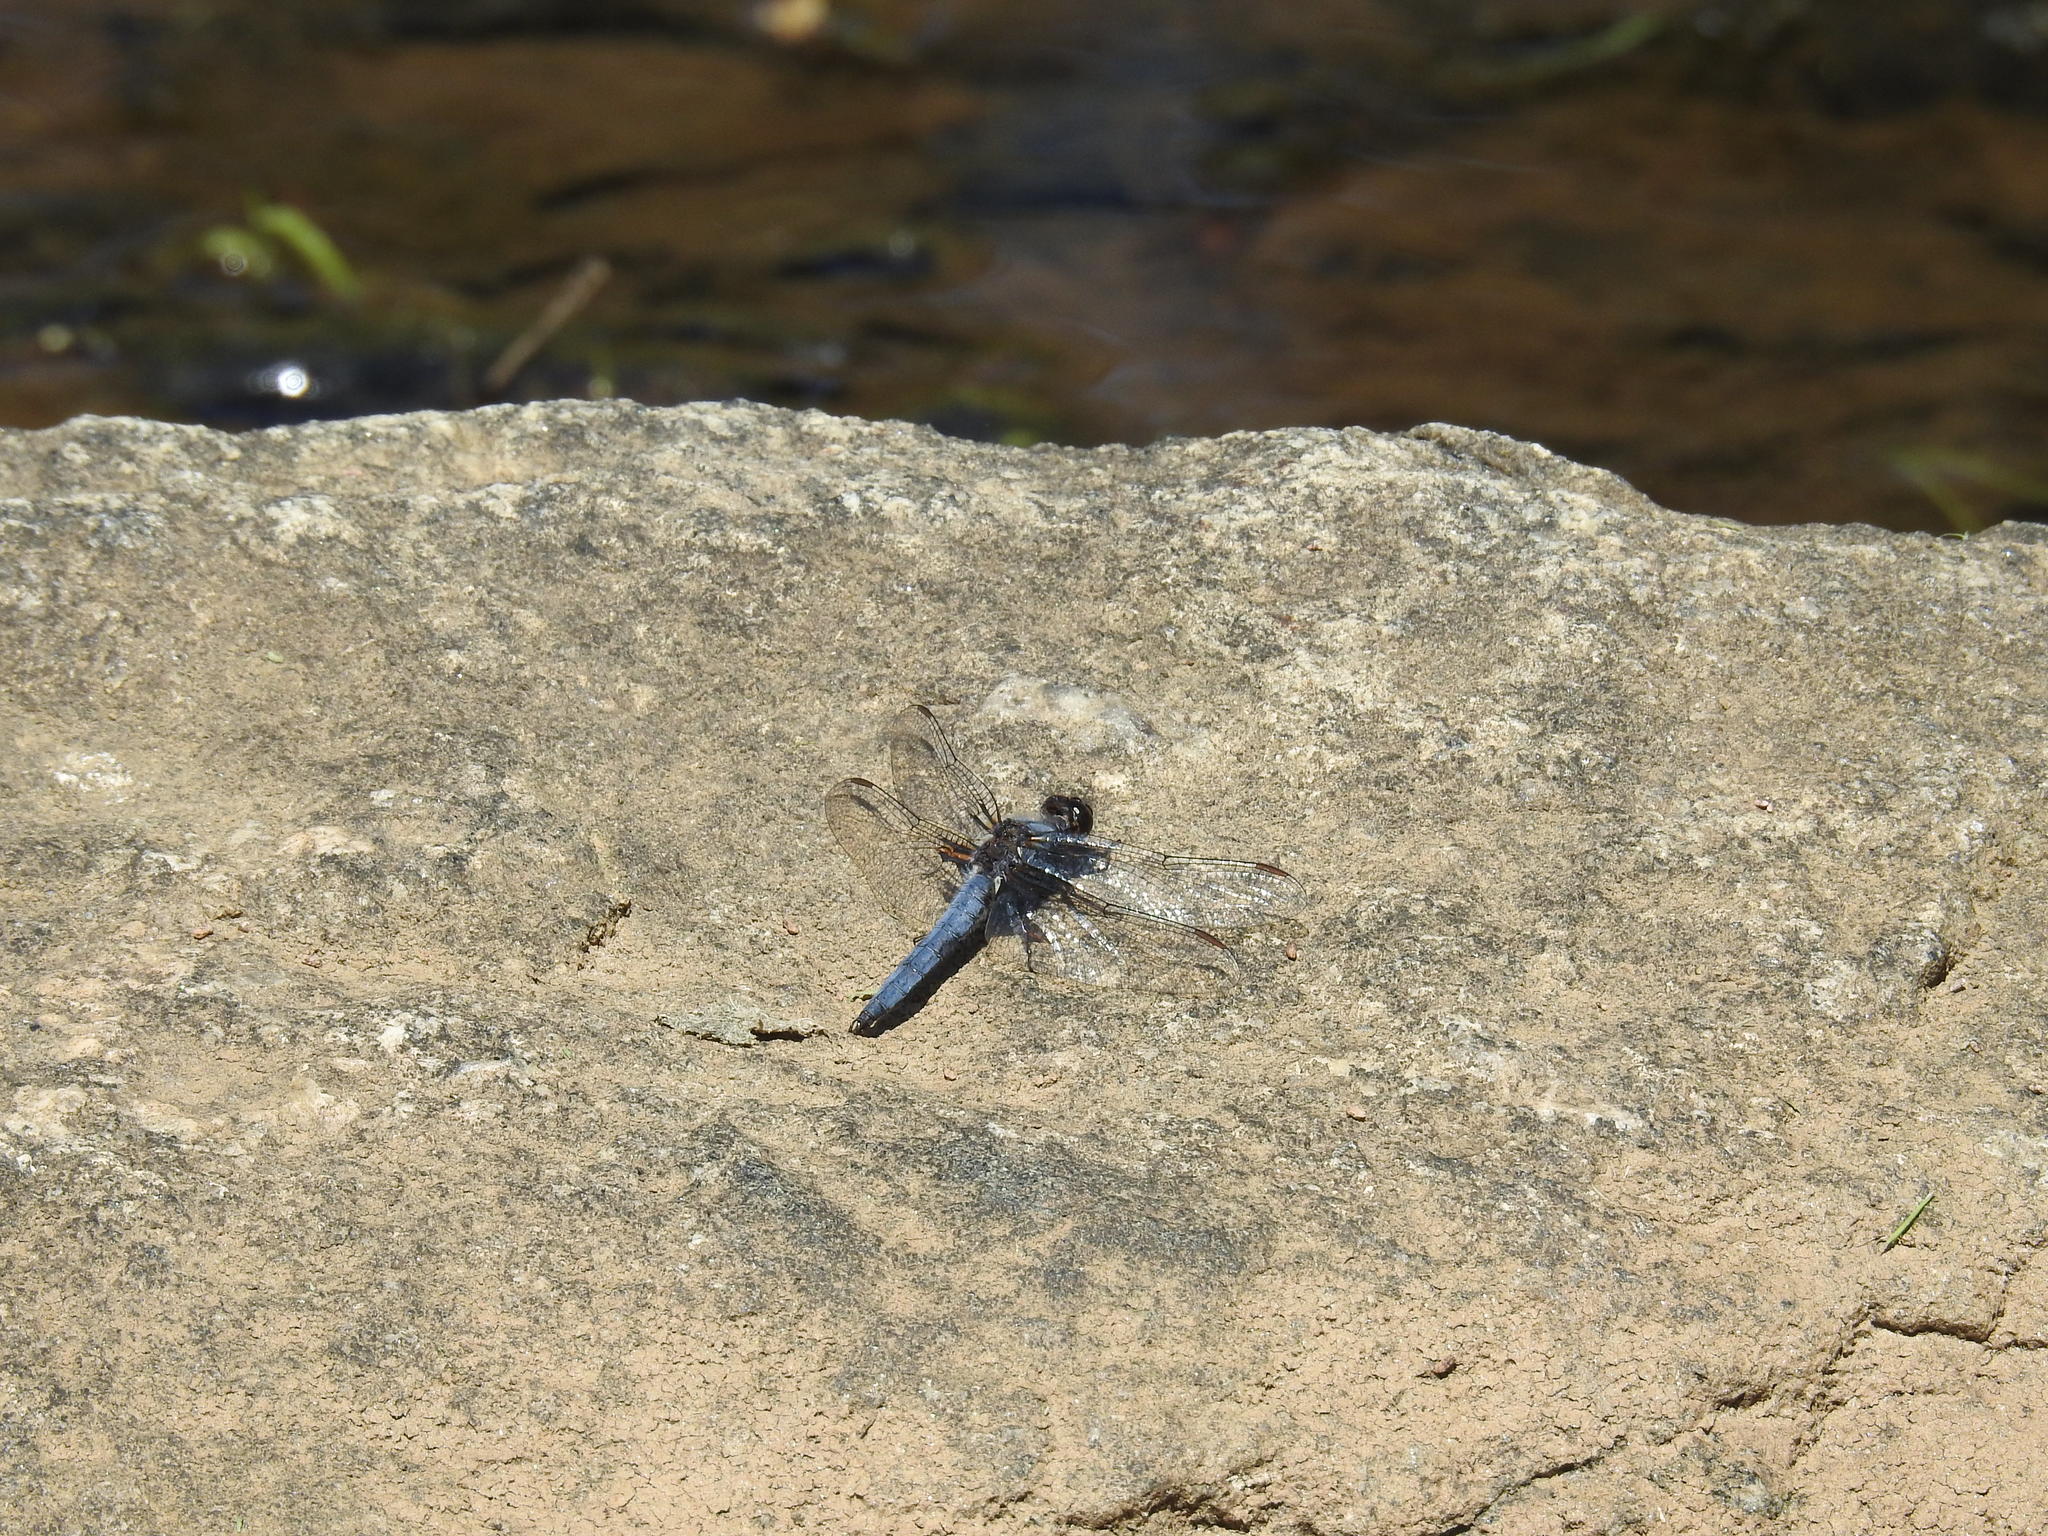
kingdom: Animalia
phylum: Arthropoda
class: Insecta
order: Odonata
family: Libellulidae
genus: Ladona
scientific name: Ladona deplanata
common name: Blue corporal
